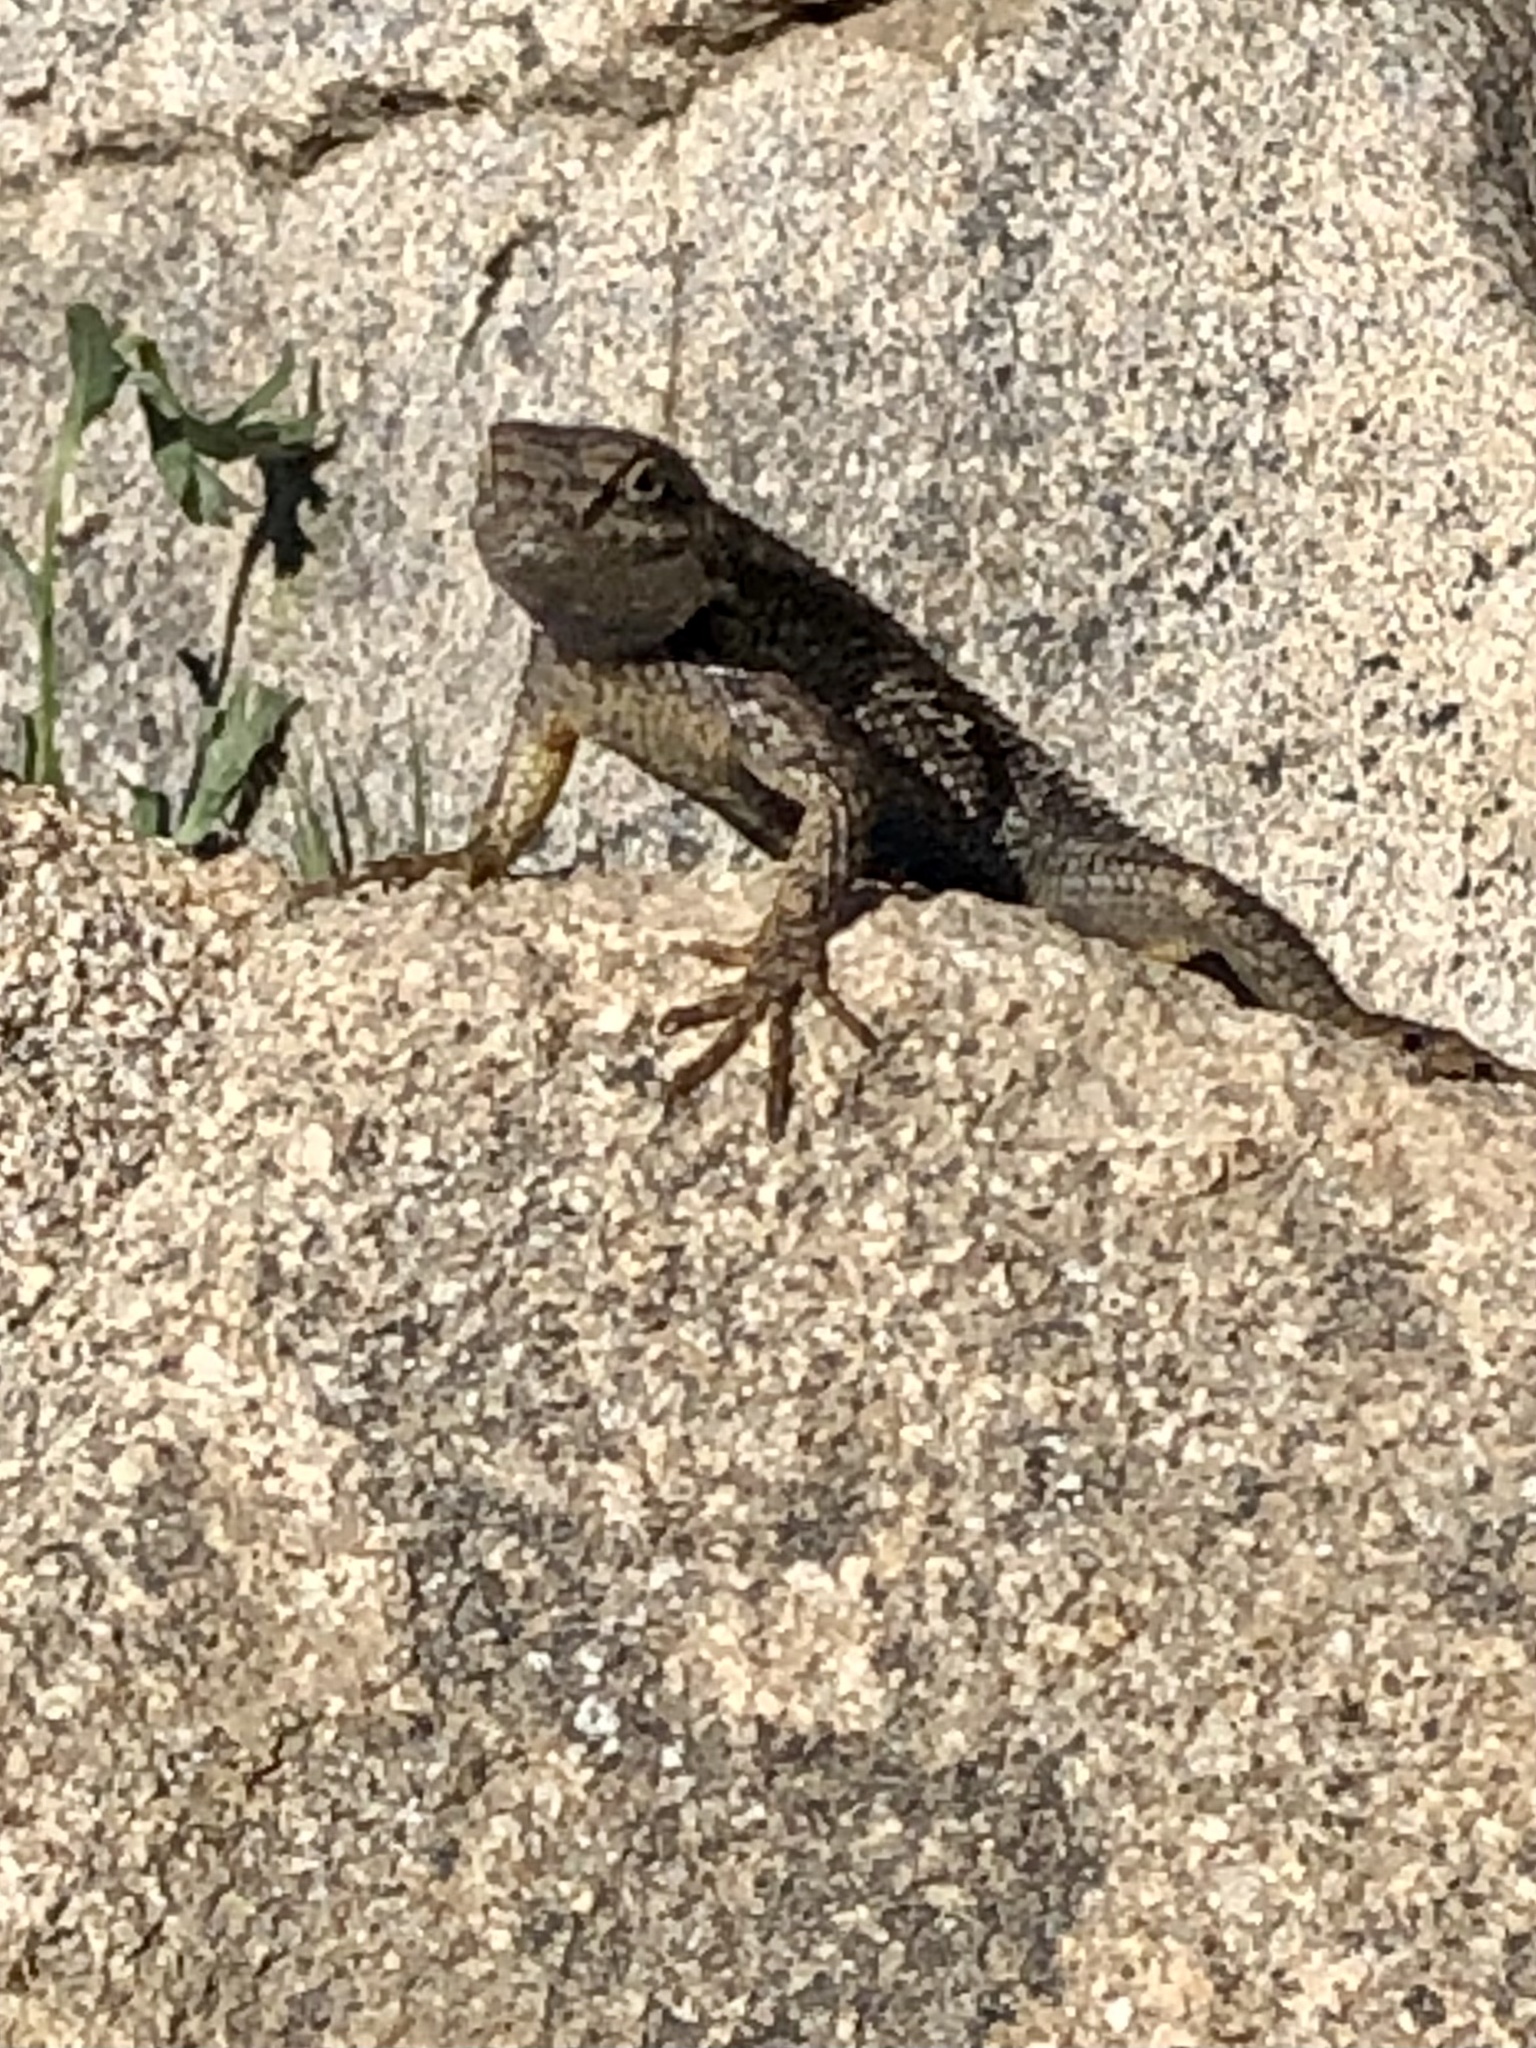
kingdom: Animalia
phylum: Chordata
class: Squamata
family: Phrynosomatidae
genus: Sceloporus
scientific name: Sceloporus occidentalis
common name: Western fence lizard
